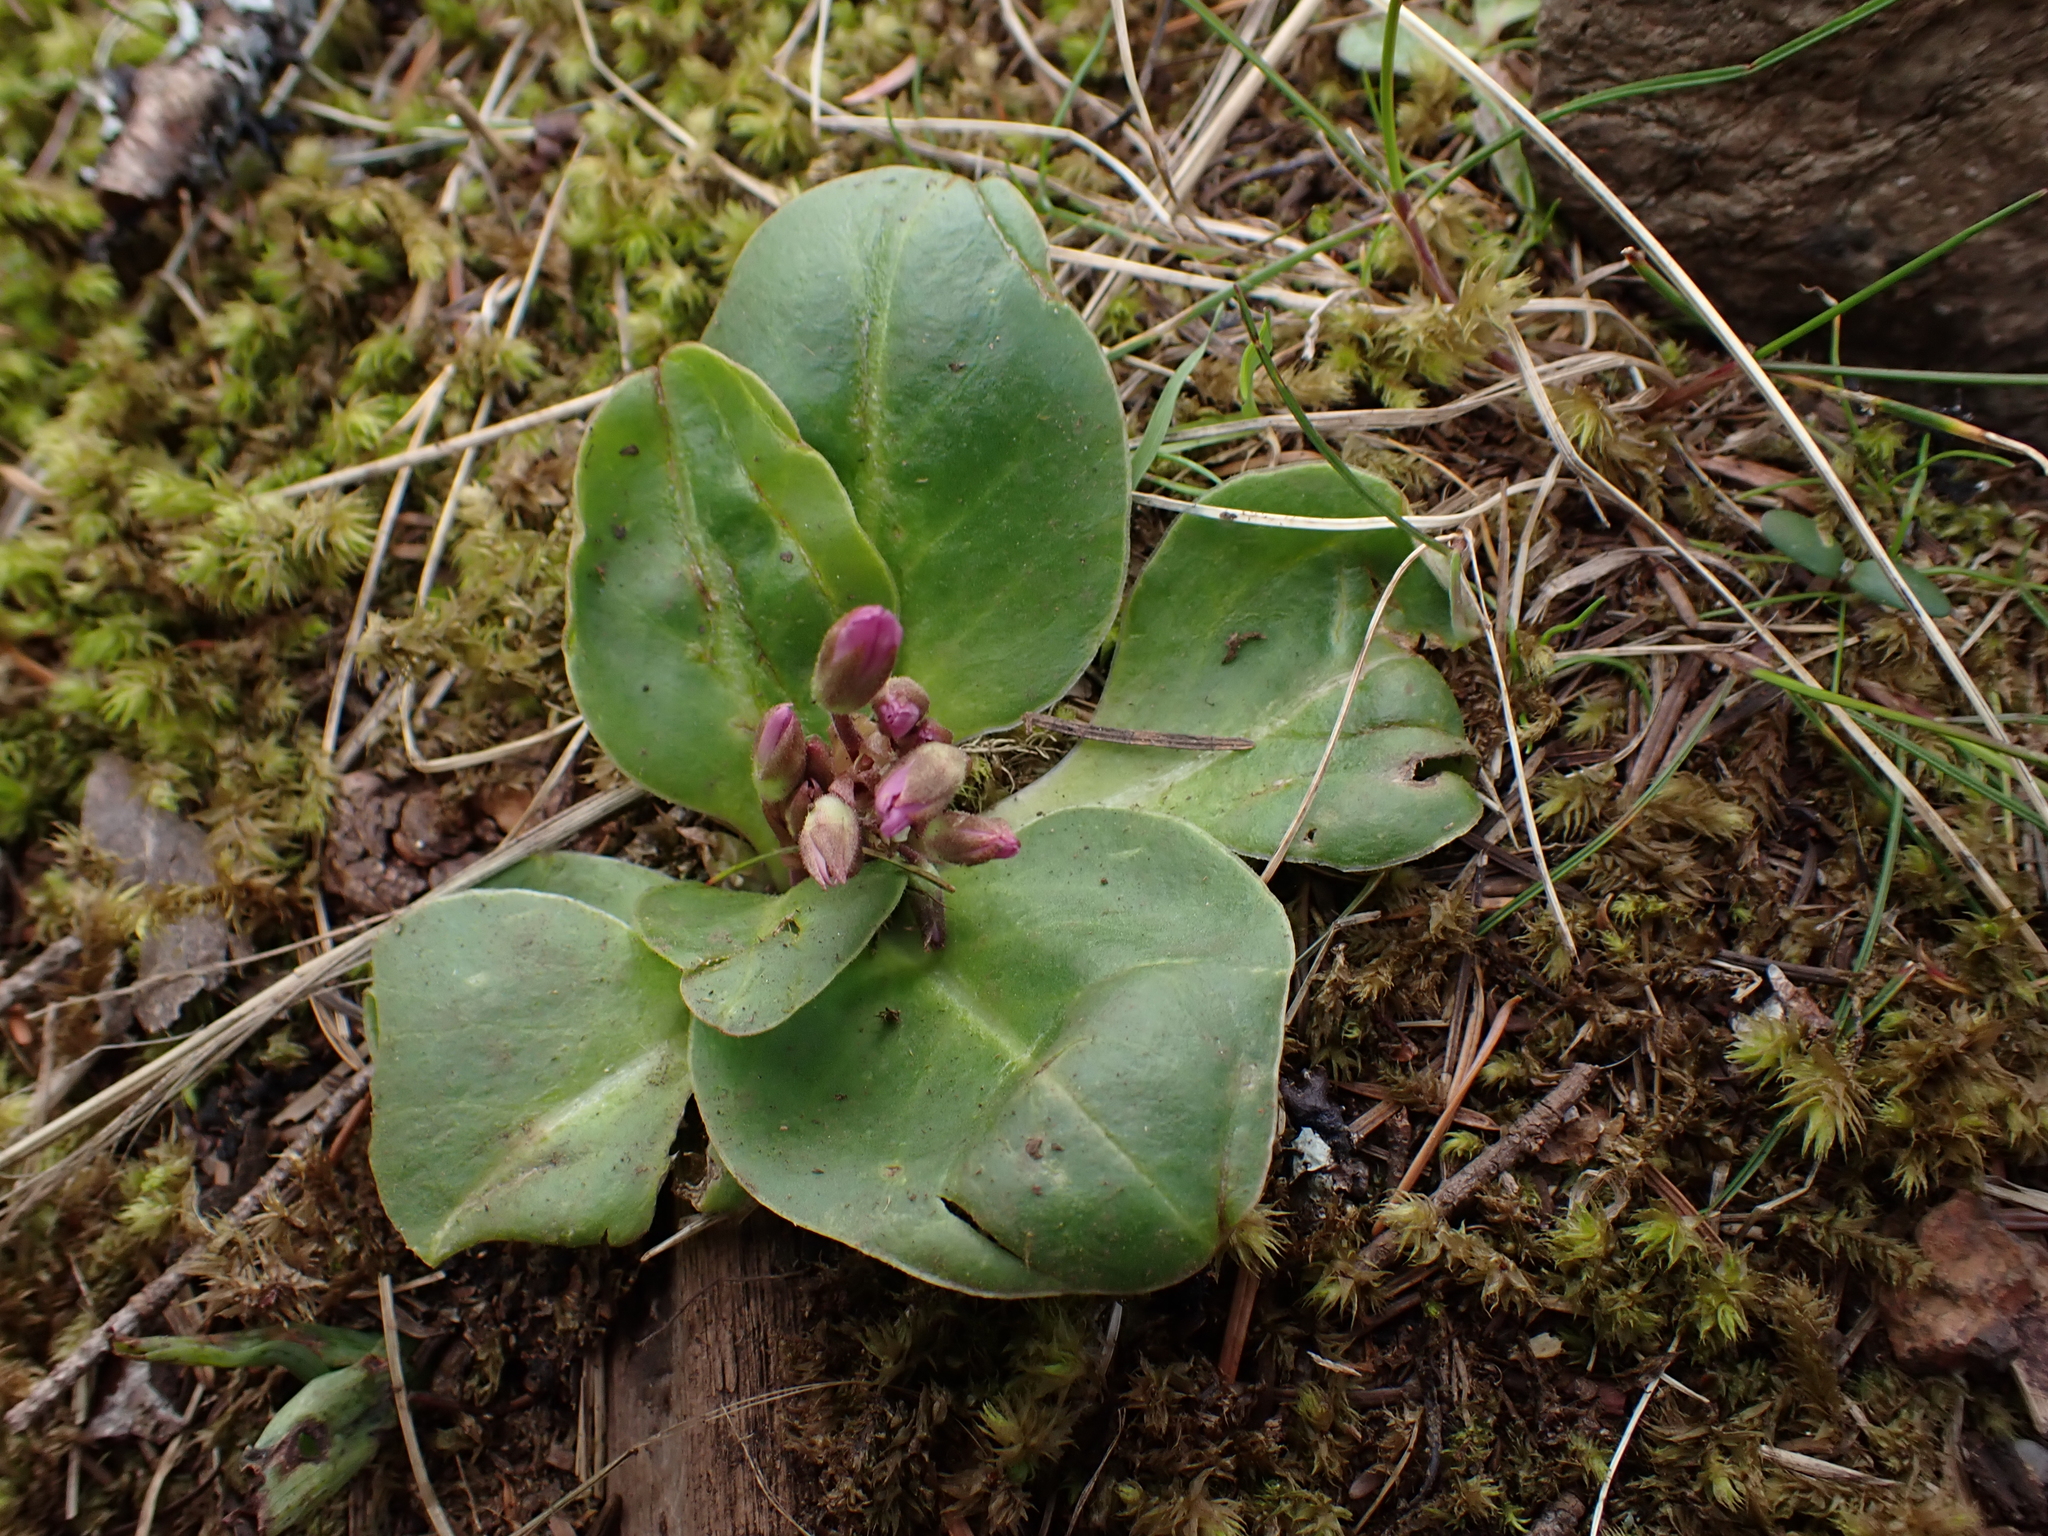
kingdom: Plantae
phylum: Tracheophyta
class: Magnoliopsida
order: Ericales
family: Primulaceae
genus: Dodecatheon
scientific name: Dodecatheon hendersonii
